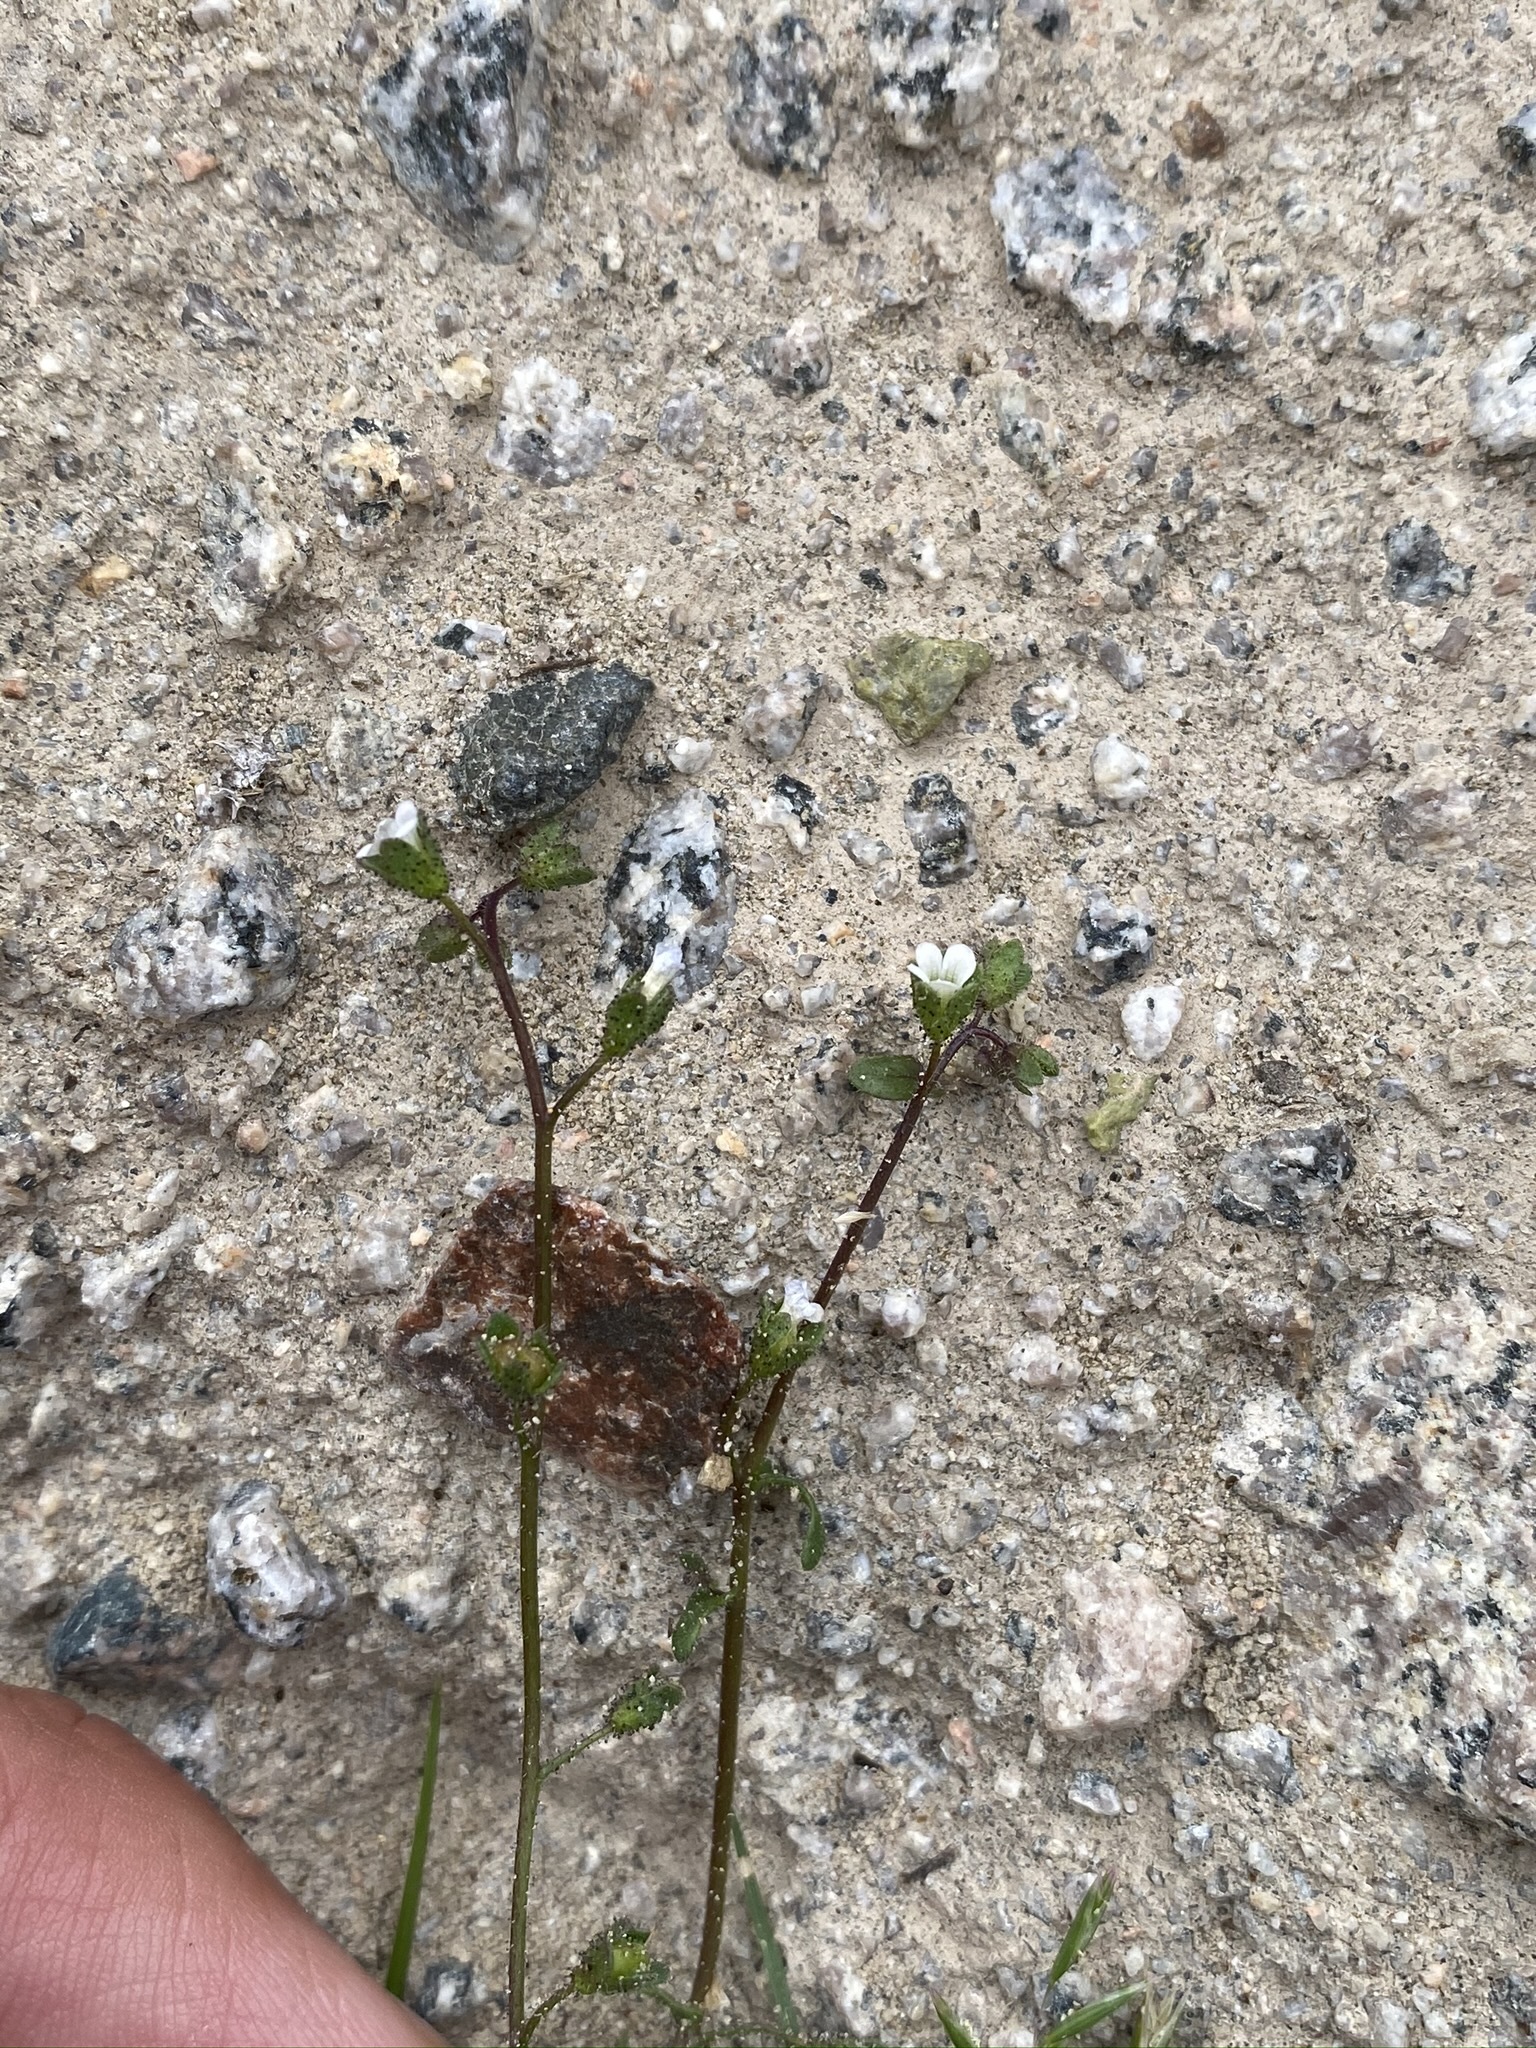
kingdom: Plantae
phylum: Tracheophyta
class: Magnoliopsida
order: Boraginales
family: Hydrophyllaceae
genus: Eucrypta
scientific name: Eucrypta micrantha
